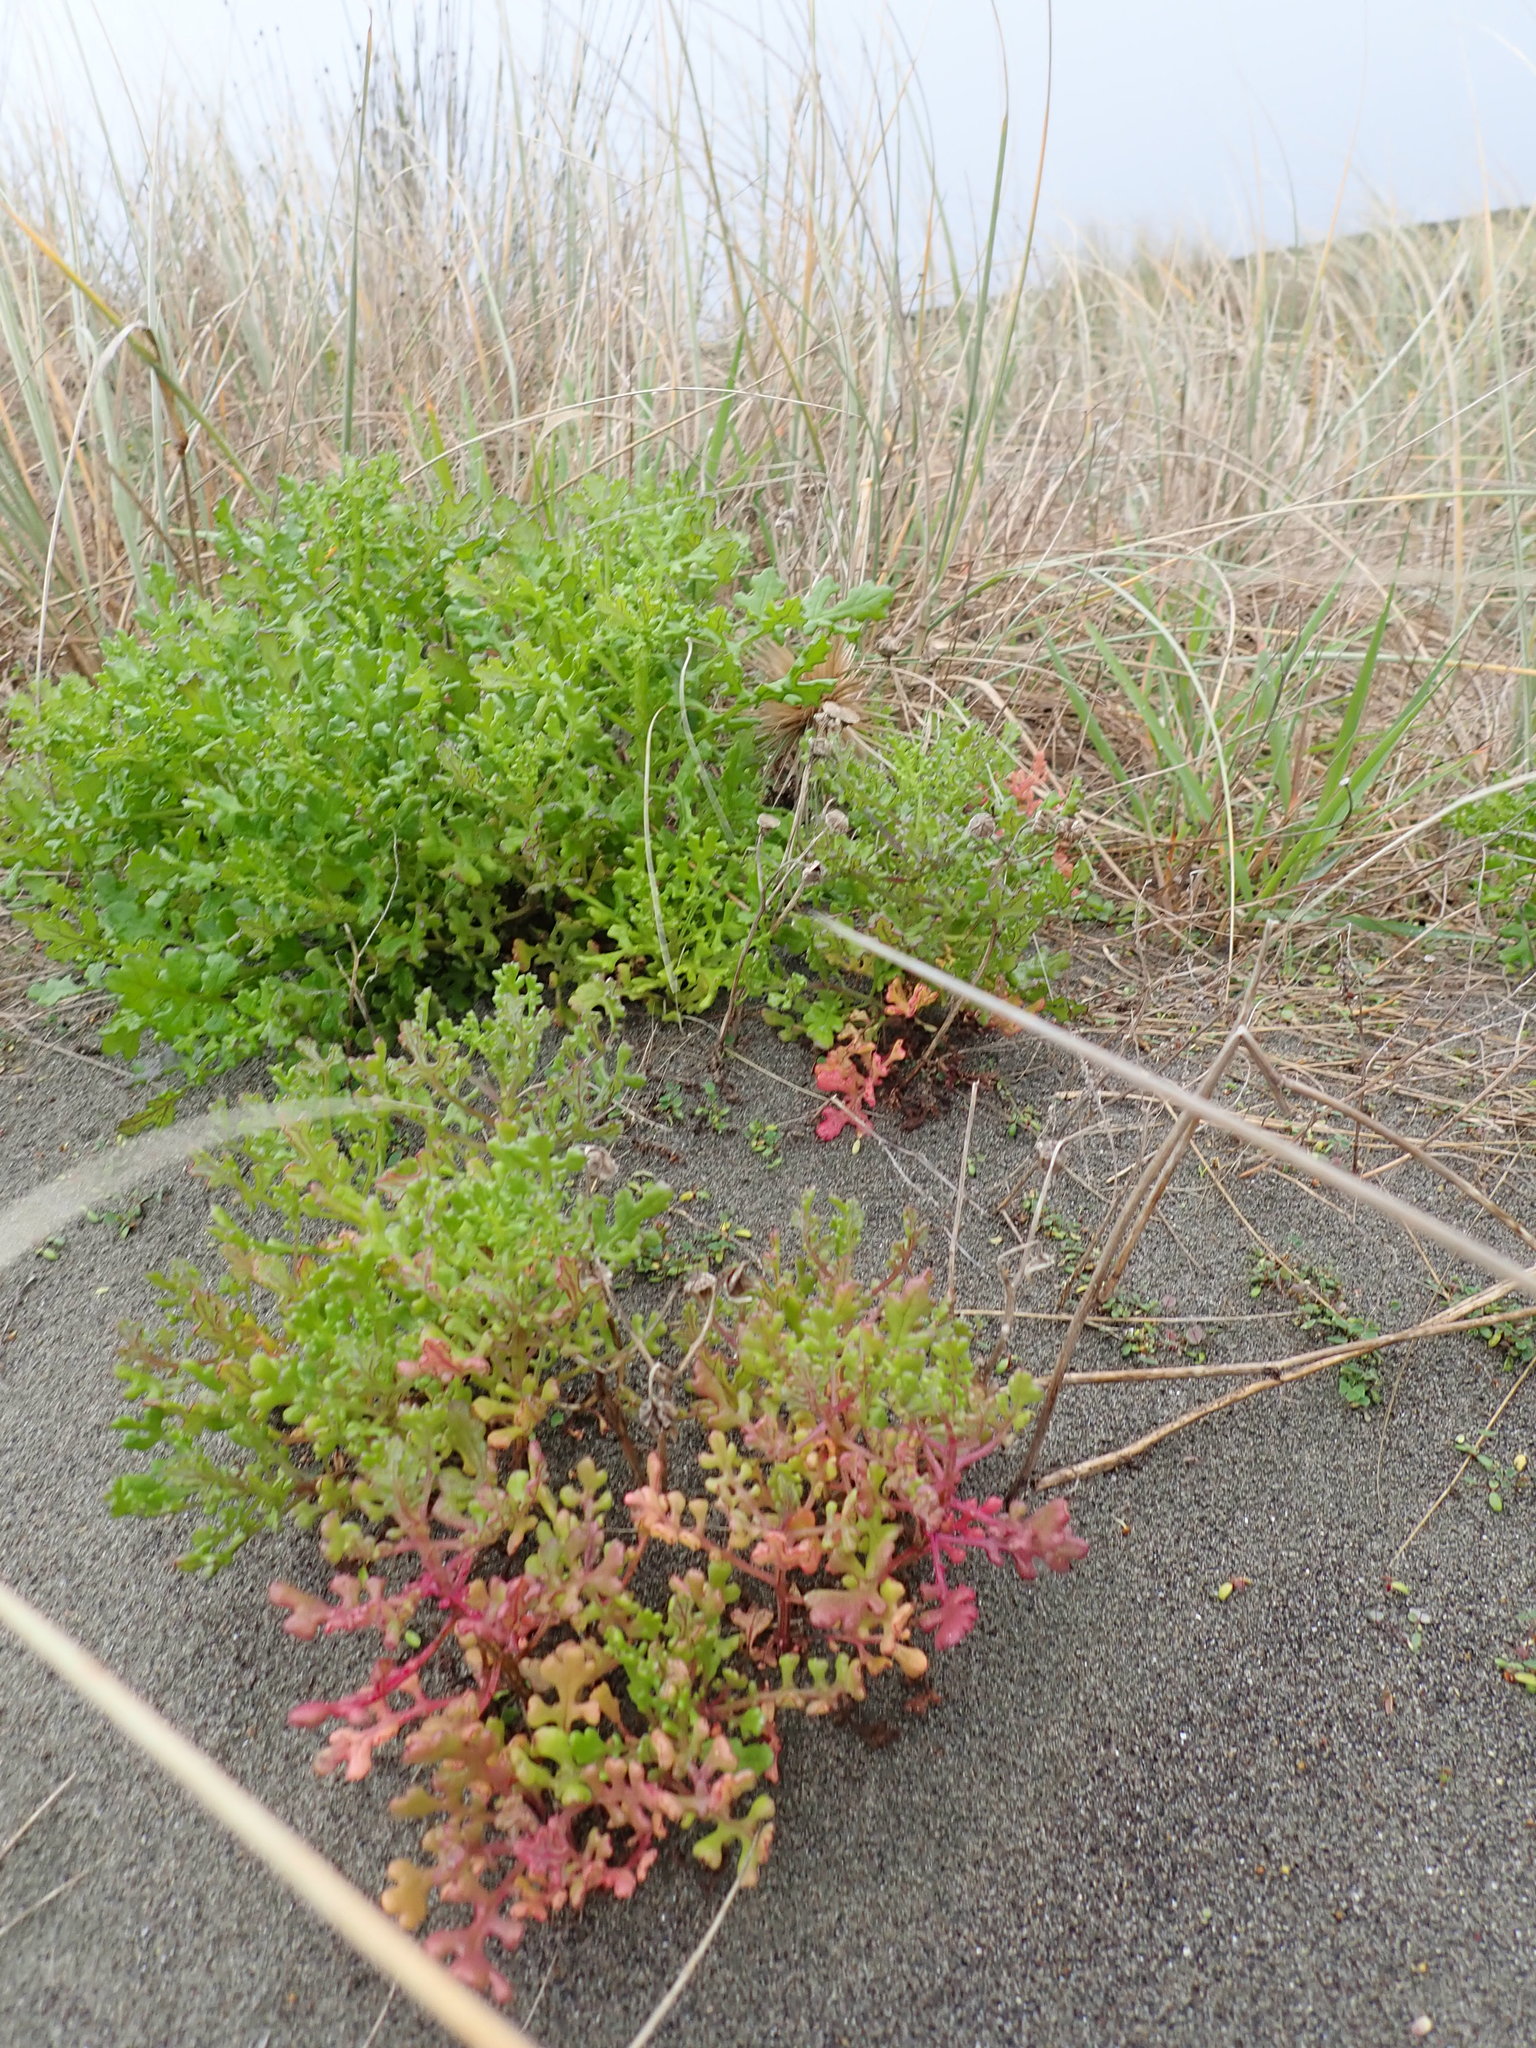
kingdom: Plantae
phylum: Tracheophyta
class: Magnoliopsida
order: Asterales
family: Asteraceae
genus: Senecio
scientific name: Senecio elegans
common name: Purple groundsel
